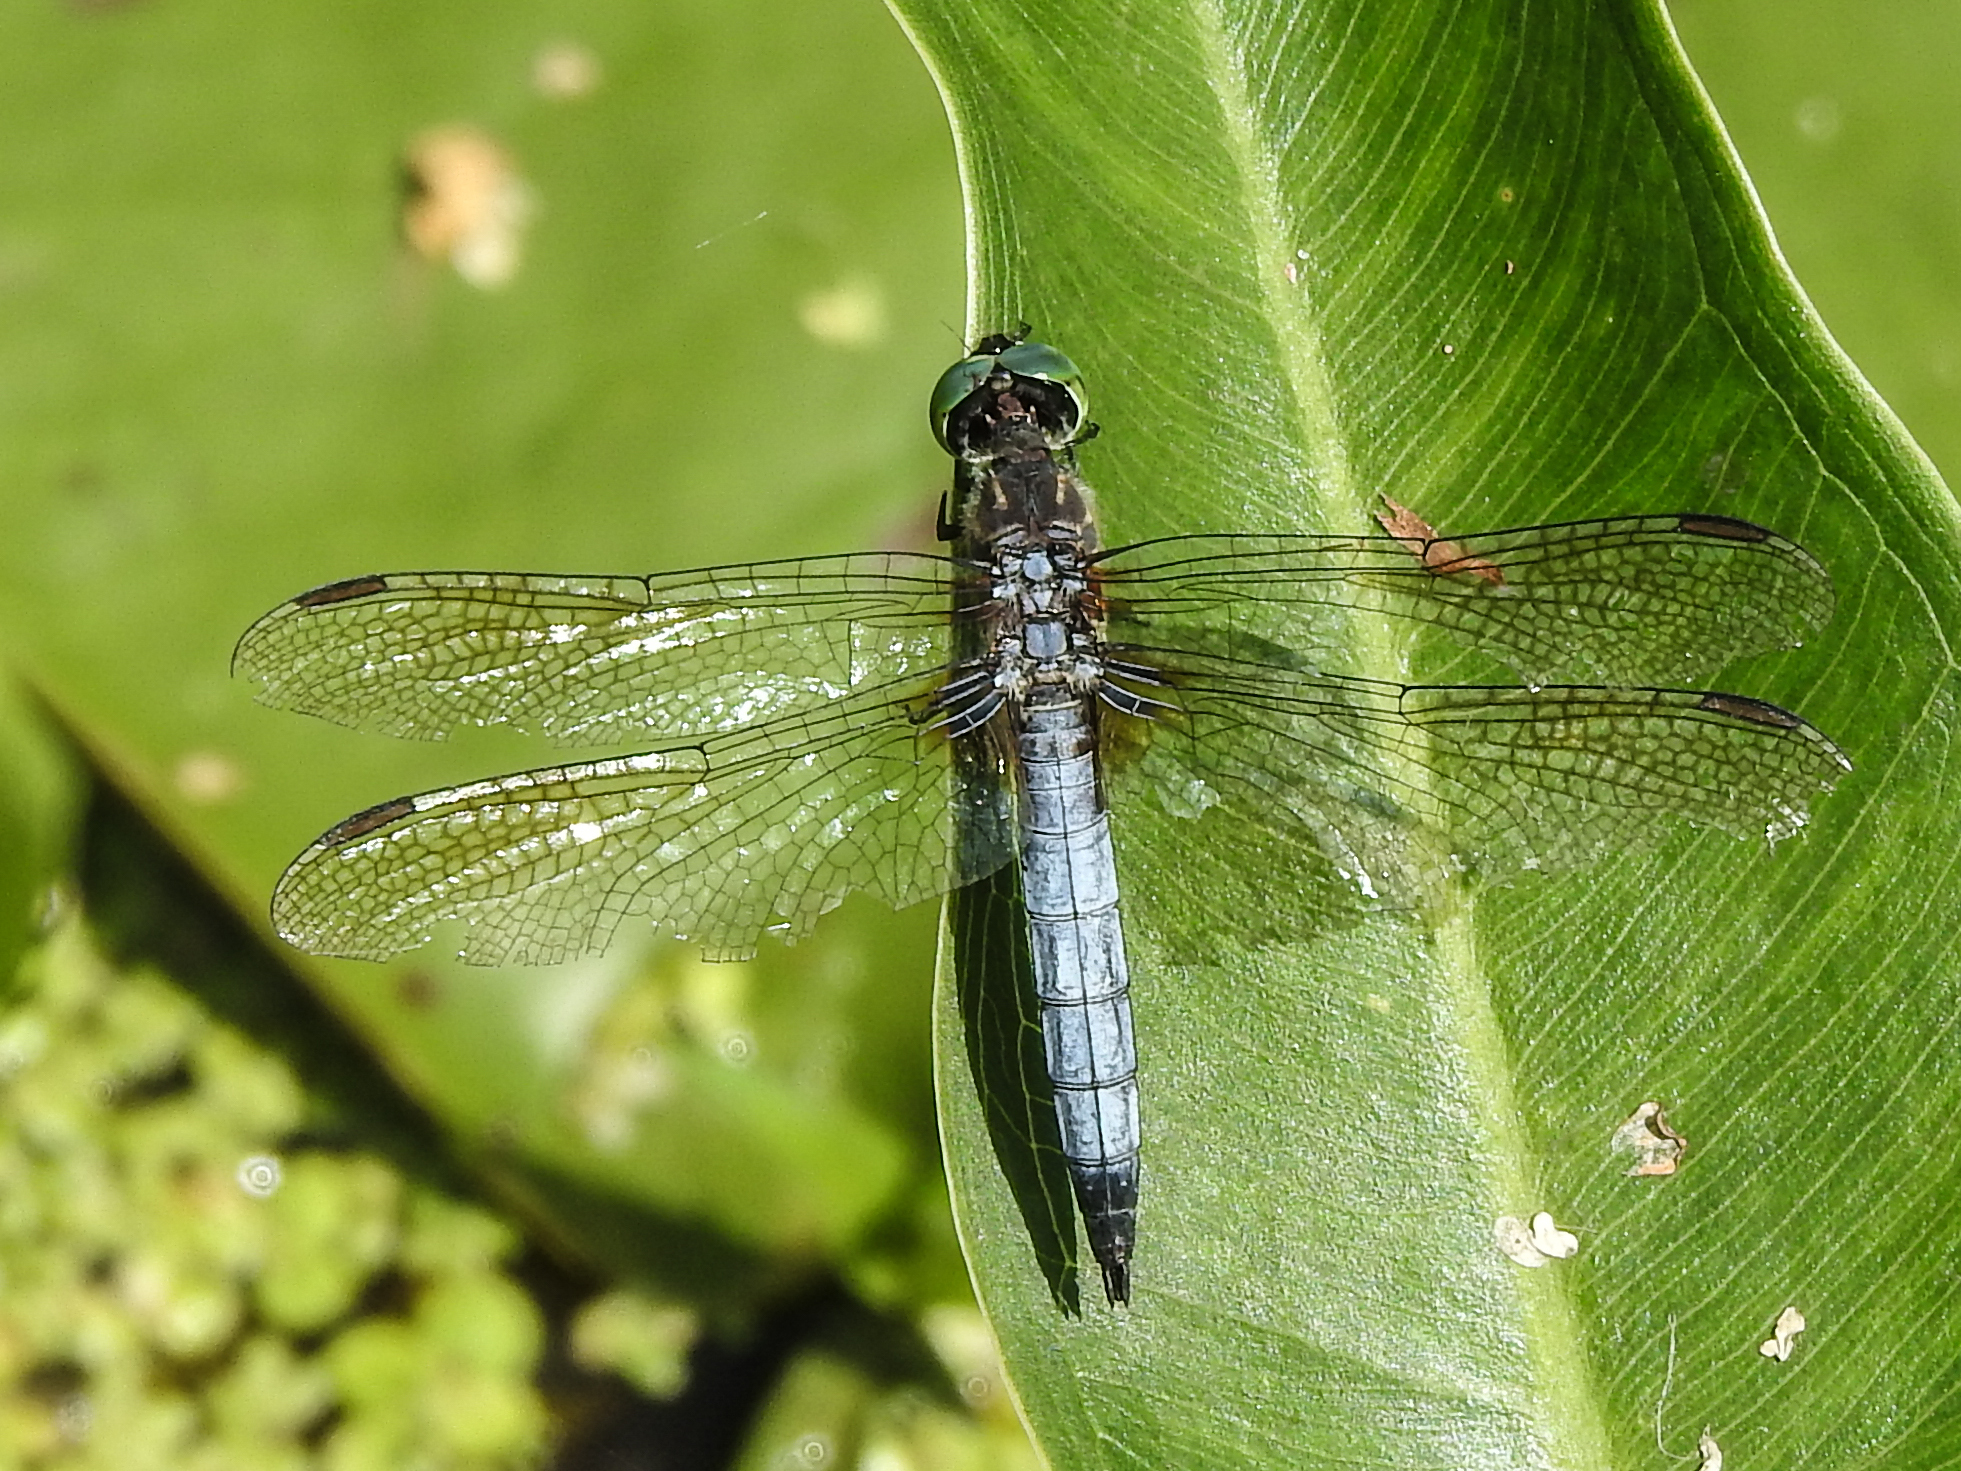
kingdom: Animalia
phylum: Arthropoda
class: Insecta
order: Odonata
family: Libellulidae
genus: Erythemis
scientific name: Erythemis simplicicollis
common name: Eastern pondhawk
